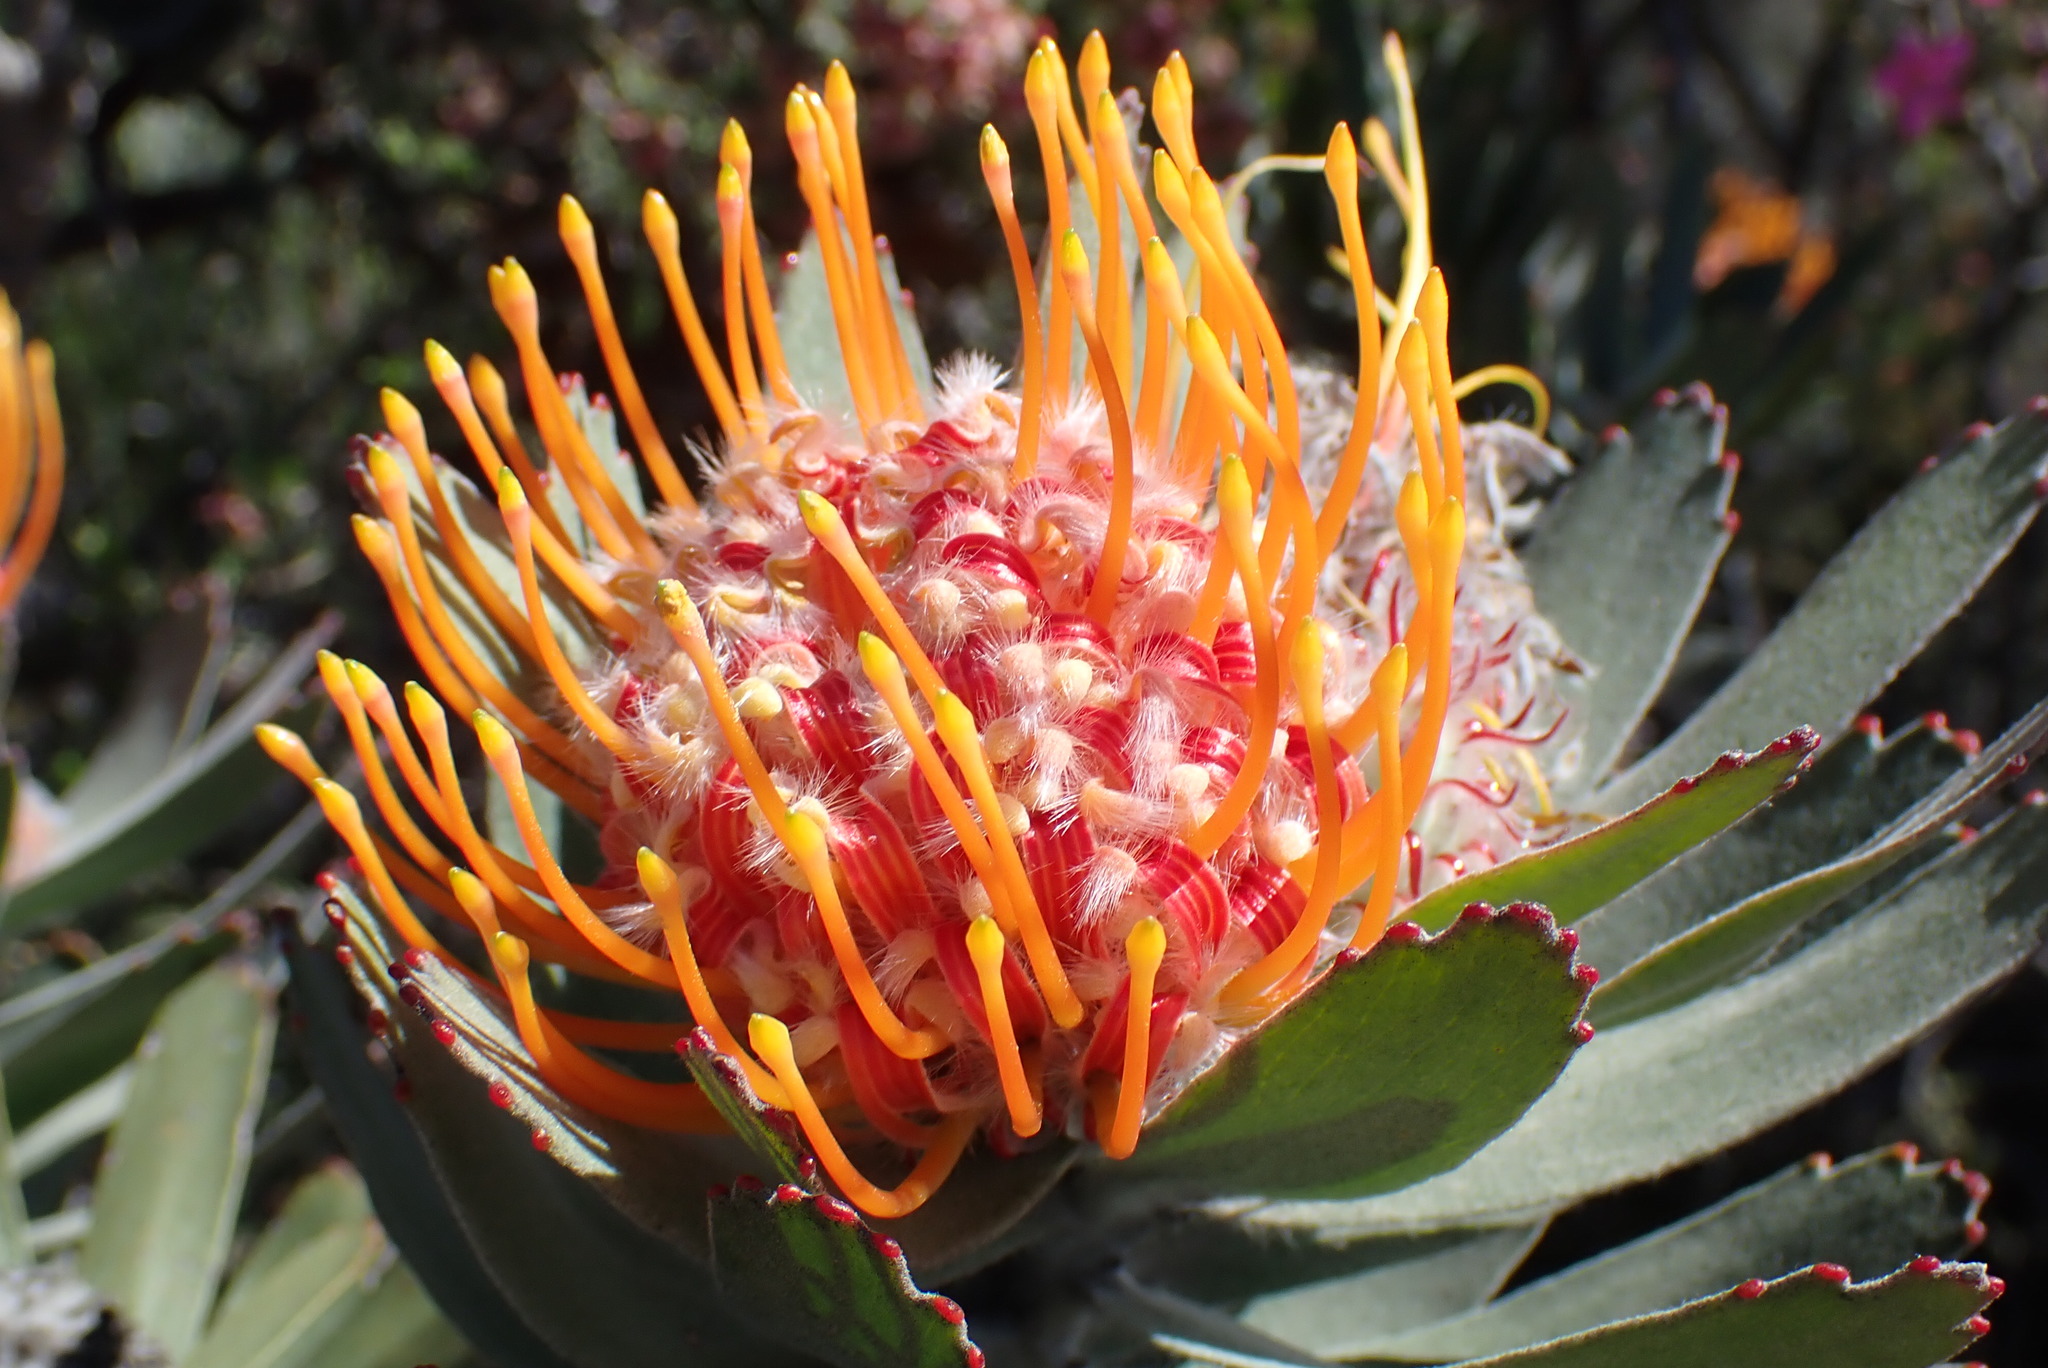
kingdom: Plantae
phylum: Tracheophyta
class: Magnoliopsida
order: Proteales
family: Proteaceae
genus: Leucospermum
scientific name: Leucospermum pluridens
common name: Robinson pincushion
